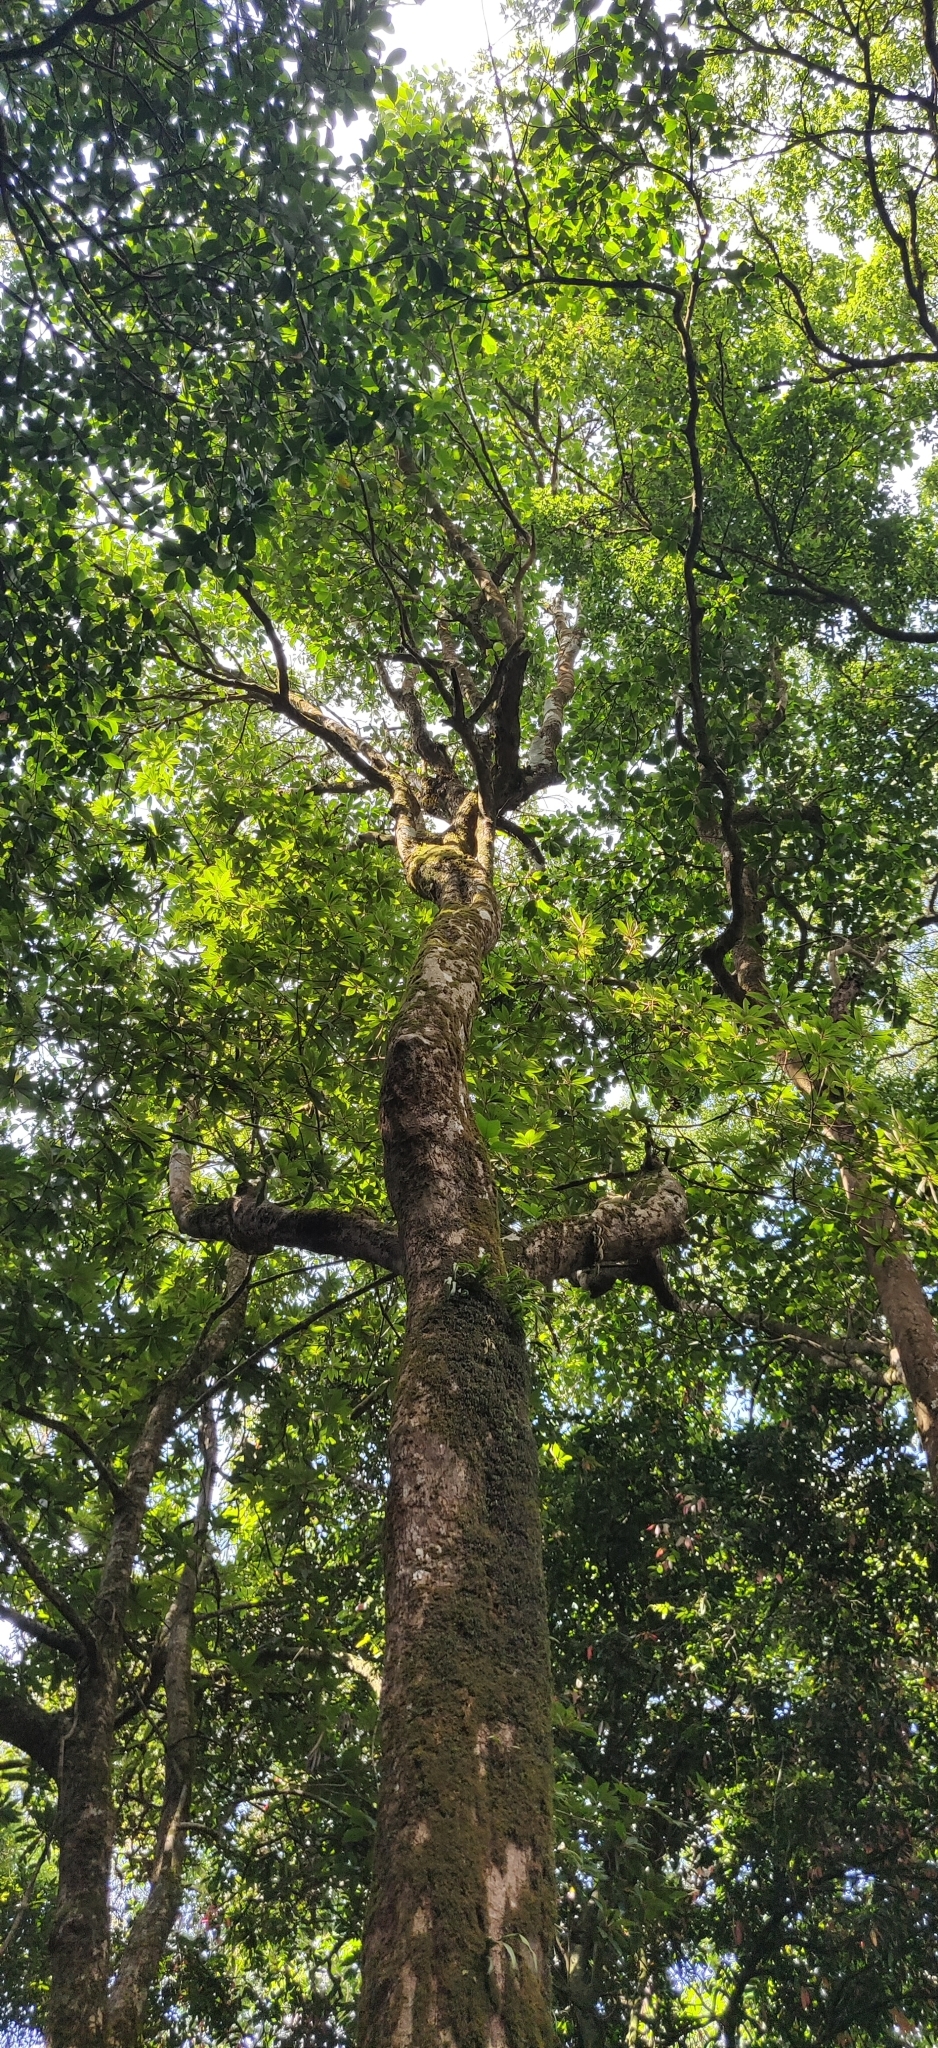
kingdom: Plantae
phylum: Tracheophyta
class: Magnoliopsida
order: Malpighiales
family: Centroplacaceae
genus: Bhesa
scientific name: Bhesa indica
